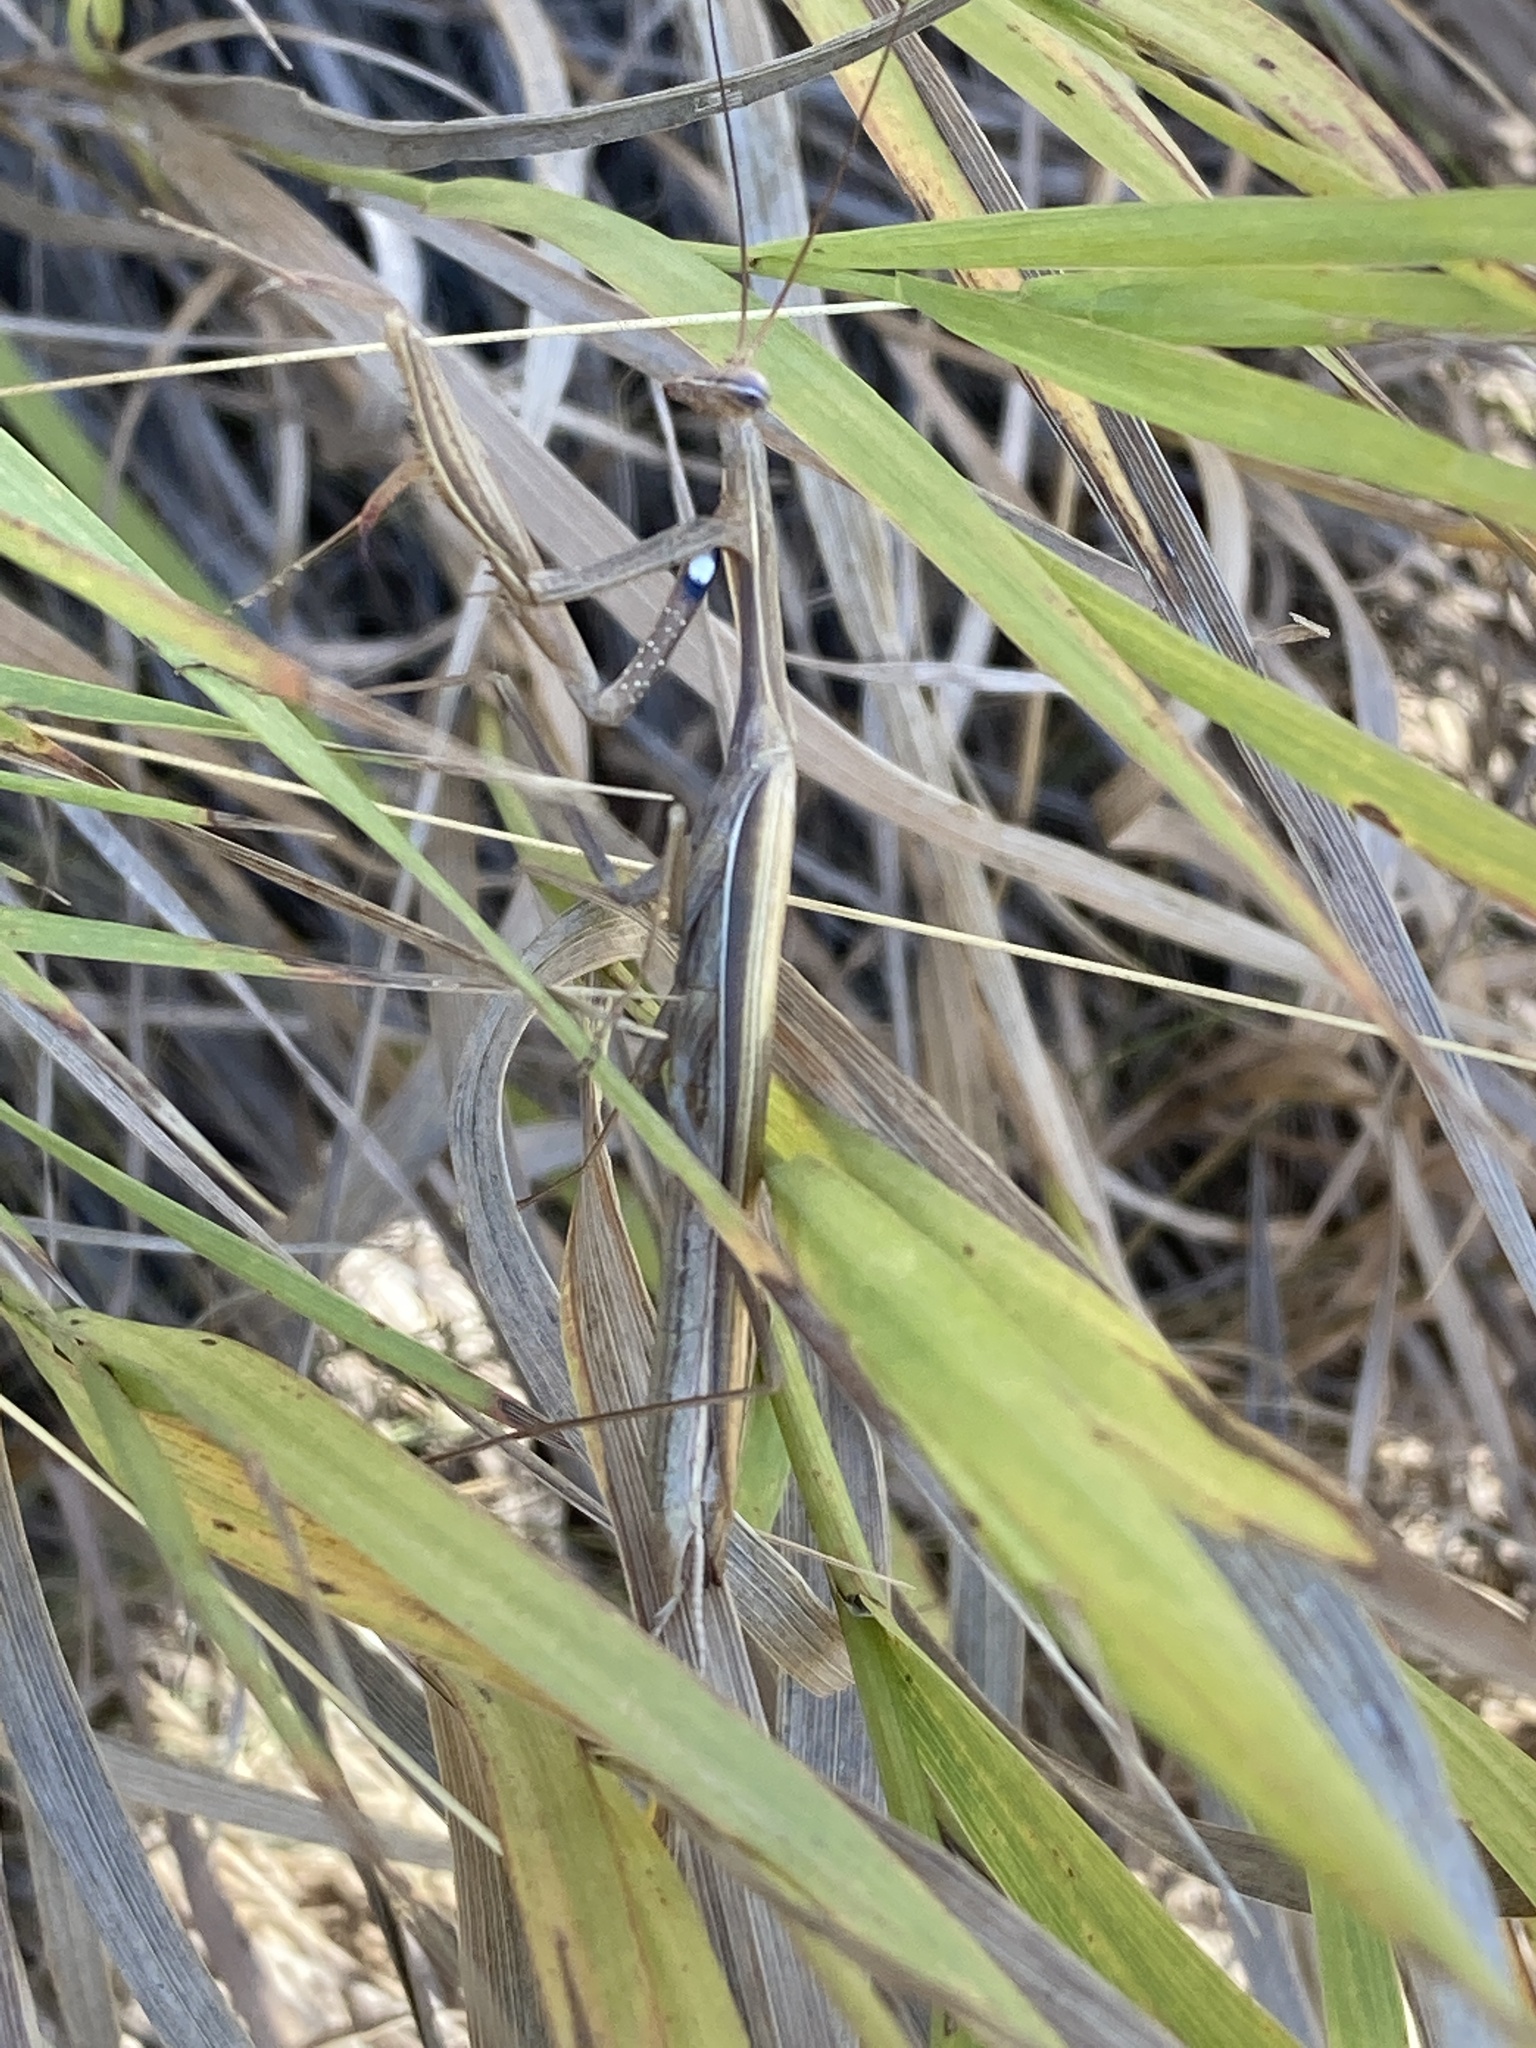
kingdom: Animalia
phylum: Arthropoda
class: Insecta
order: Mantodea
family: Mantidae
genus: Mantis
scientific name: Mantis religiosa
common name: Praying mantis
